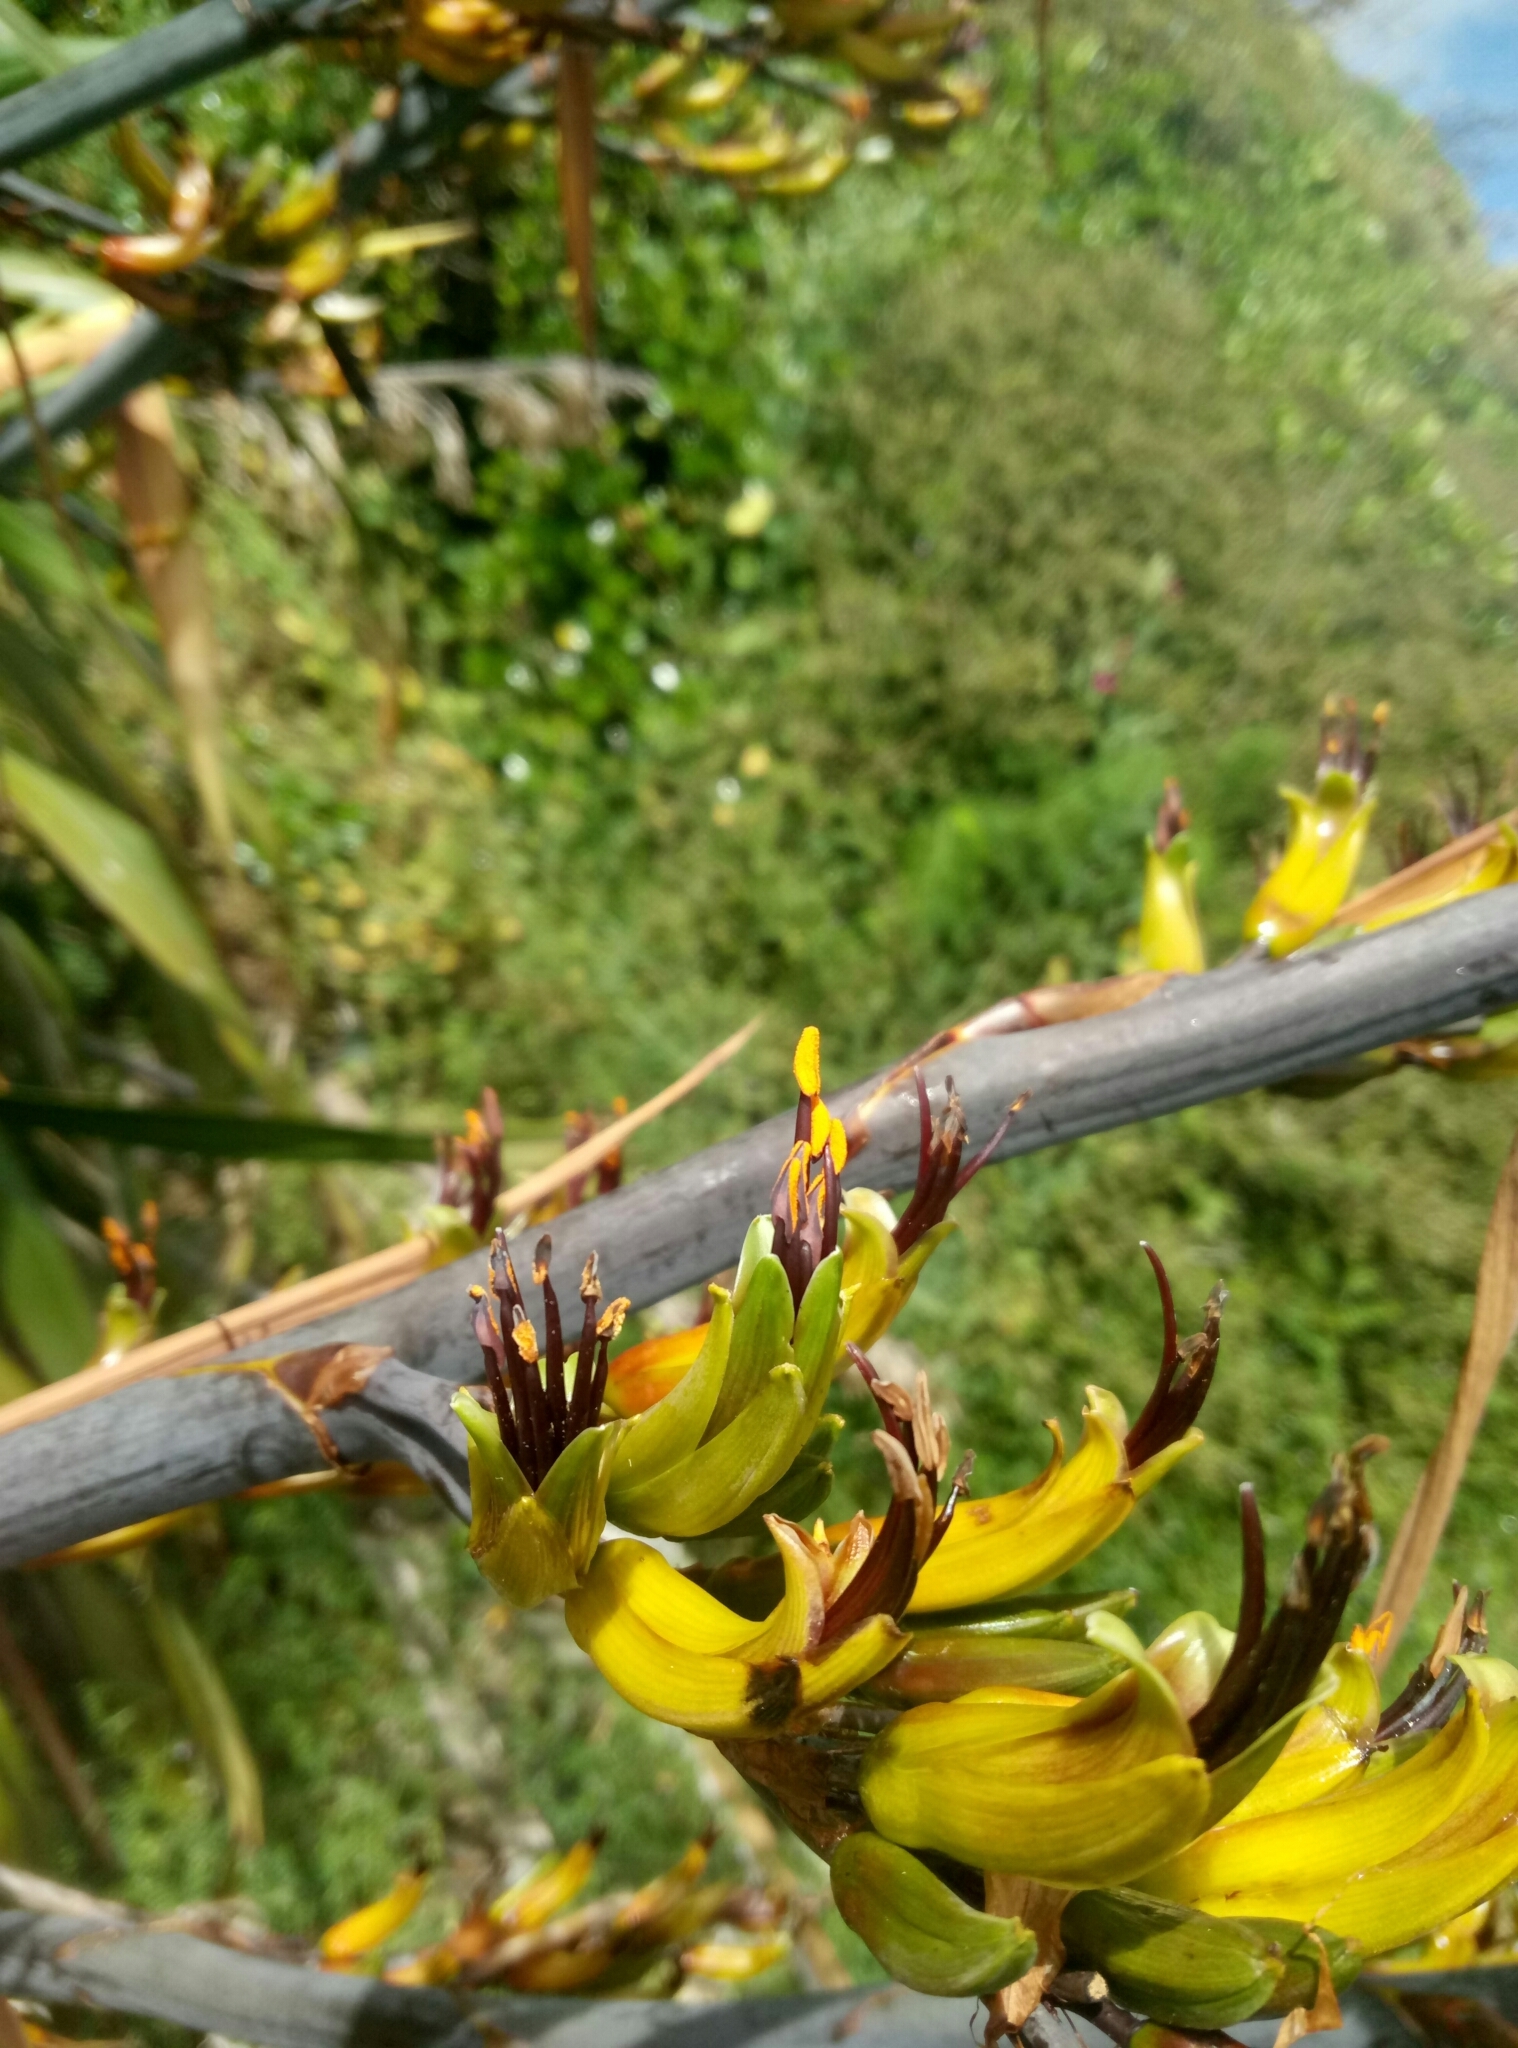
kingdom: Plantae
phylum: Tracheophyta
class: Liliopsida
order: Asparagales
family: Asphodelaceae
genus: Phormium
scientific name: Phormium colensoi
